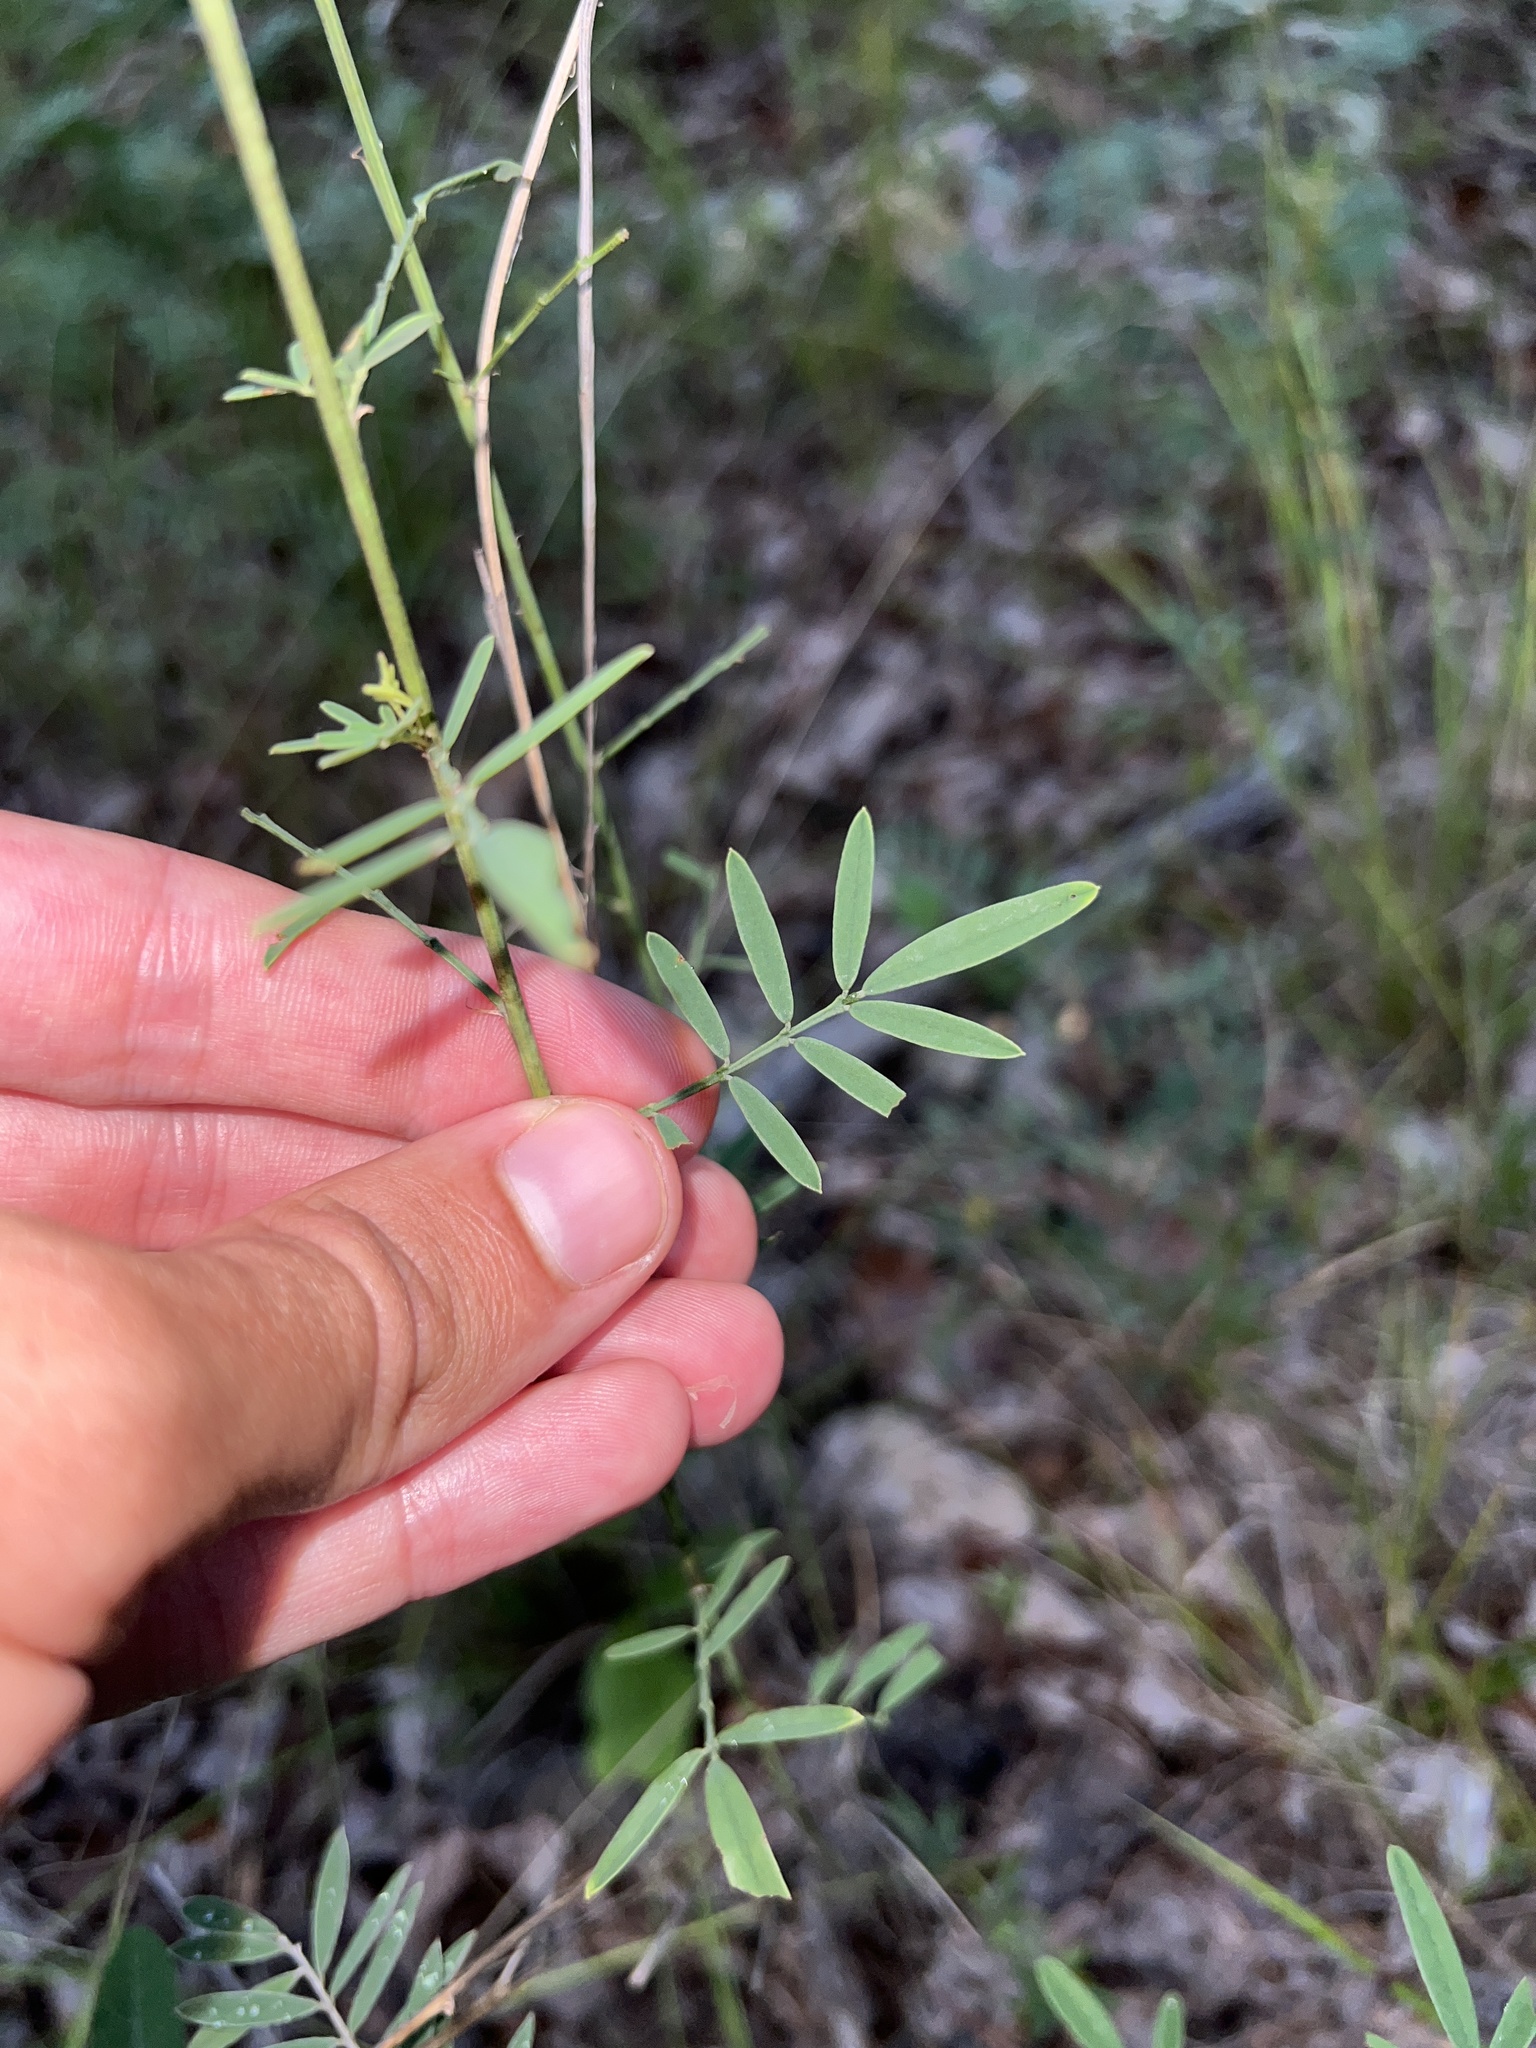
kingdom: Plantae
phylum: Tracheophyta
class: Magnoliopsida
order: Fabales
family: Fabaceae
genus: Dalea
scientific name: Dalea candida
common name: White prairie-clover
